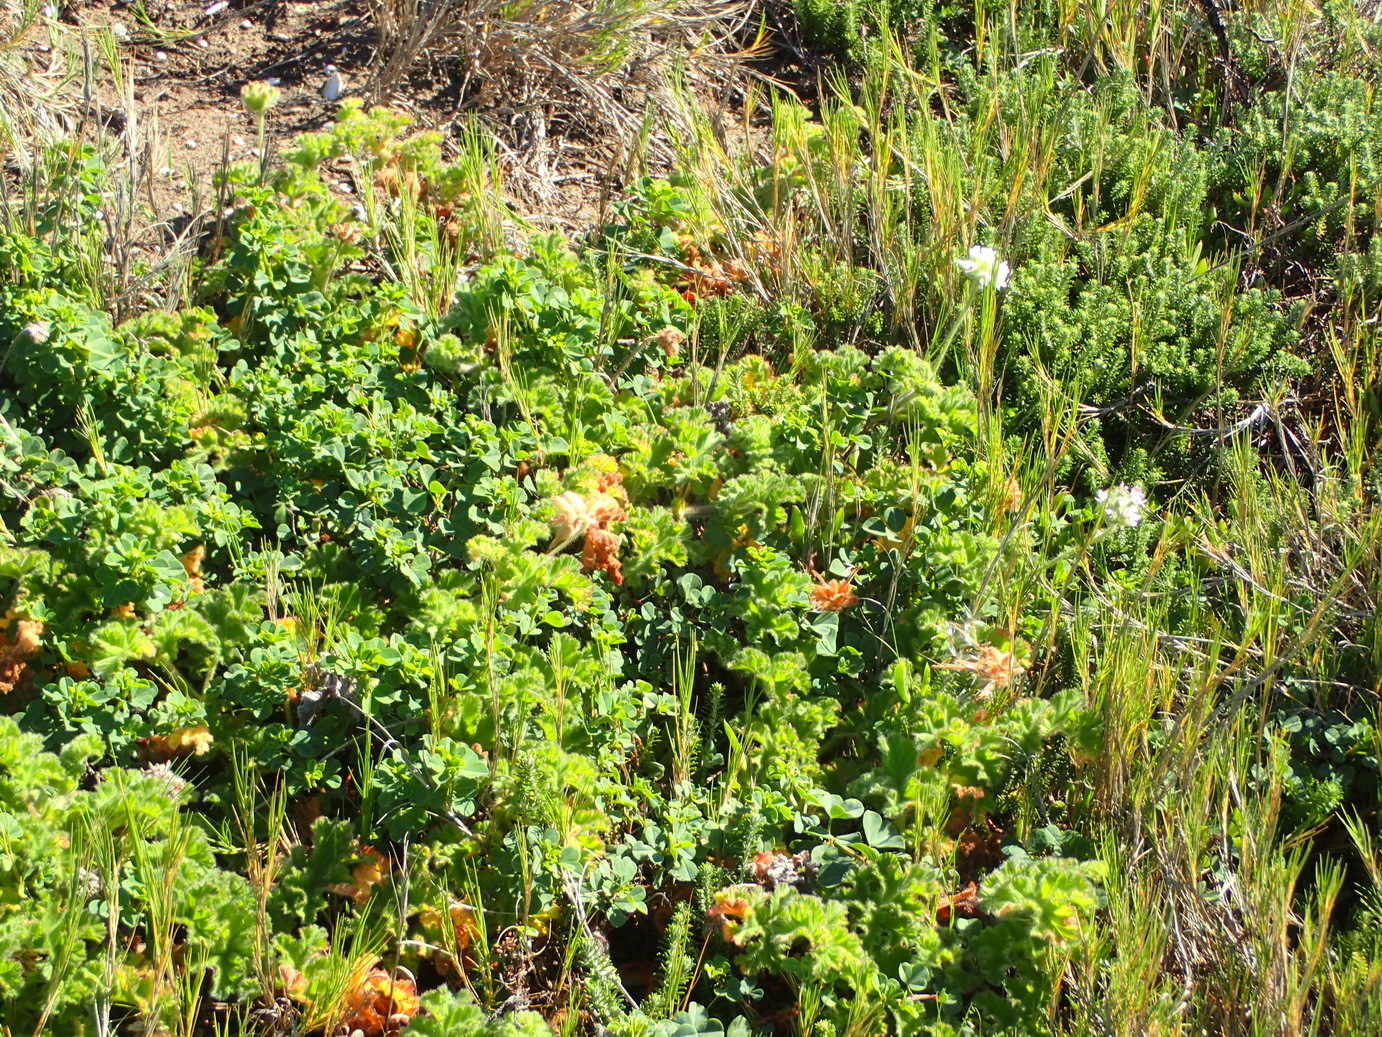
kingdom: Plantae
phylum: Tracheophyta
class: Magnoliopsida
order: Geraniales
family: Geraniaceae
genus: Pelargonium
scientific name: Pelargonium capitatum
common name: Rose scented geranium
